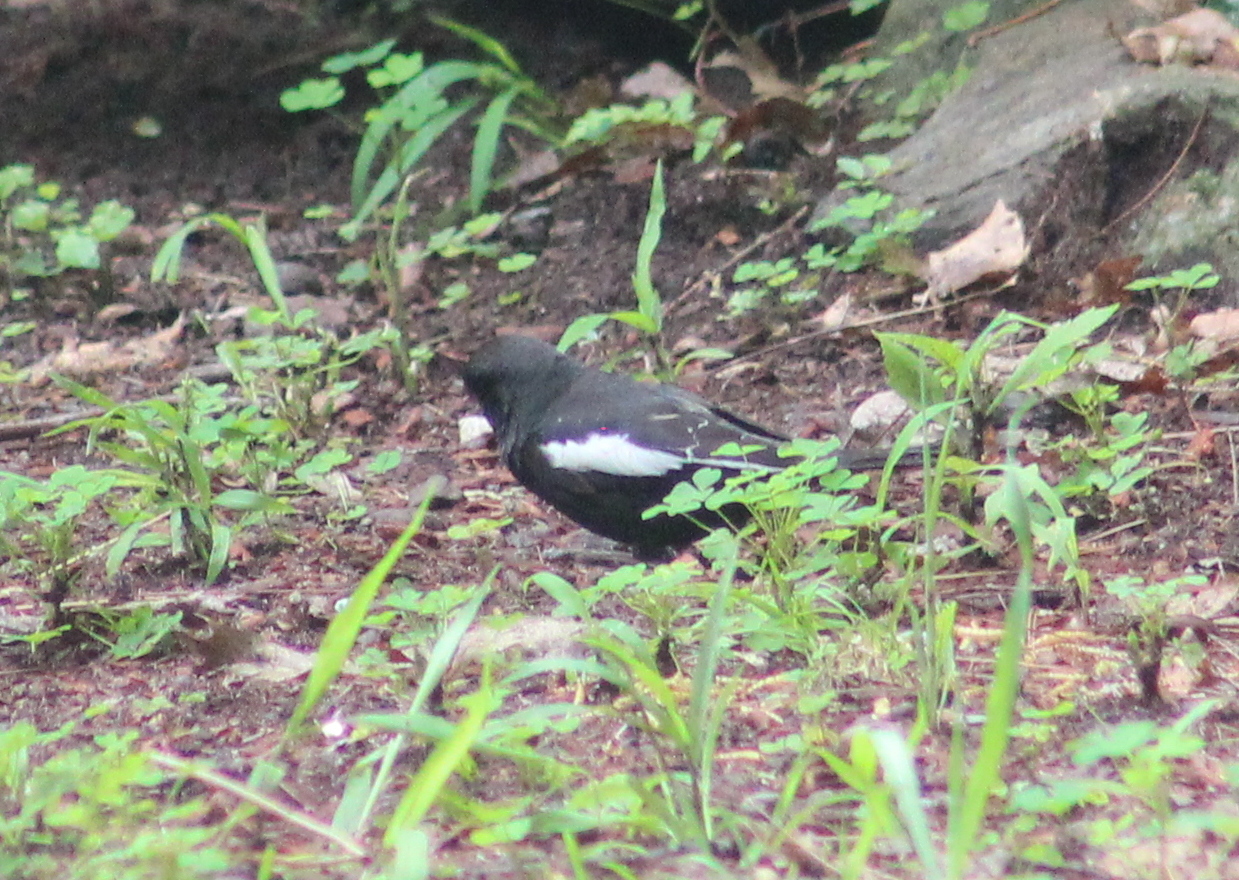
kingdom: Animalia
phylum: Chordata
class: Aves
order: Passeriformes
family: Passerellidae
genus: Calamospiza
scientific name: Calamospiza melanocorys
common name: Lark bunting
